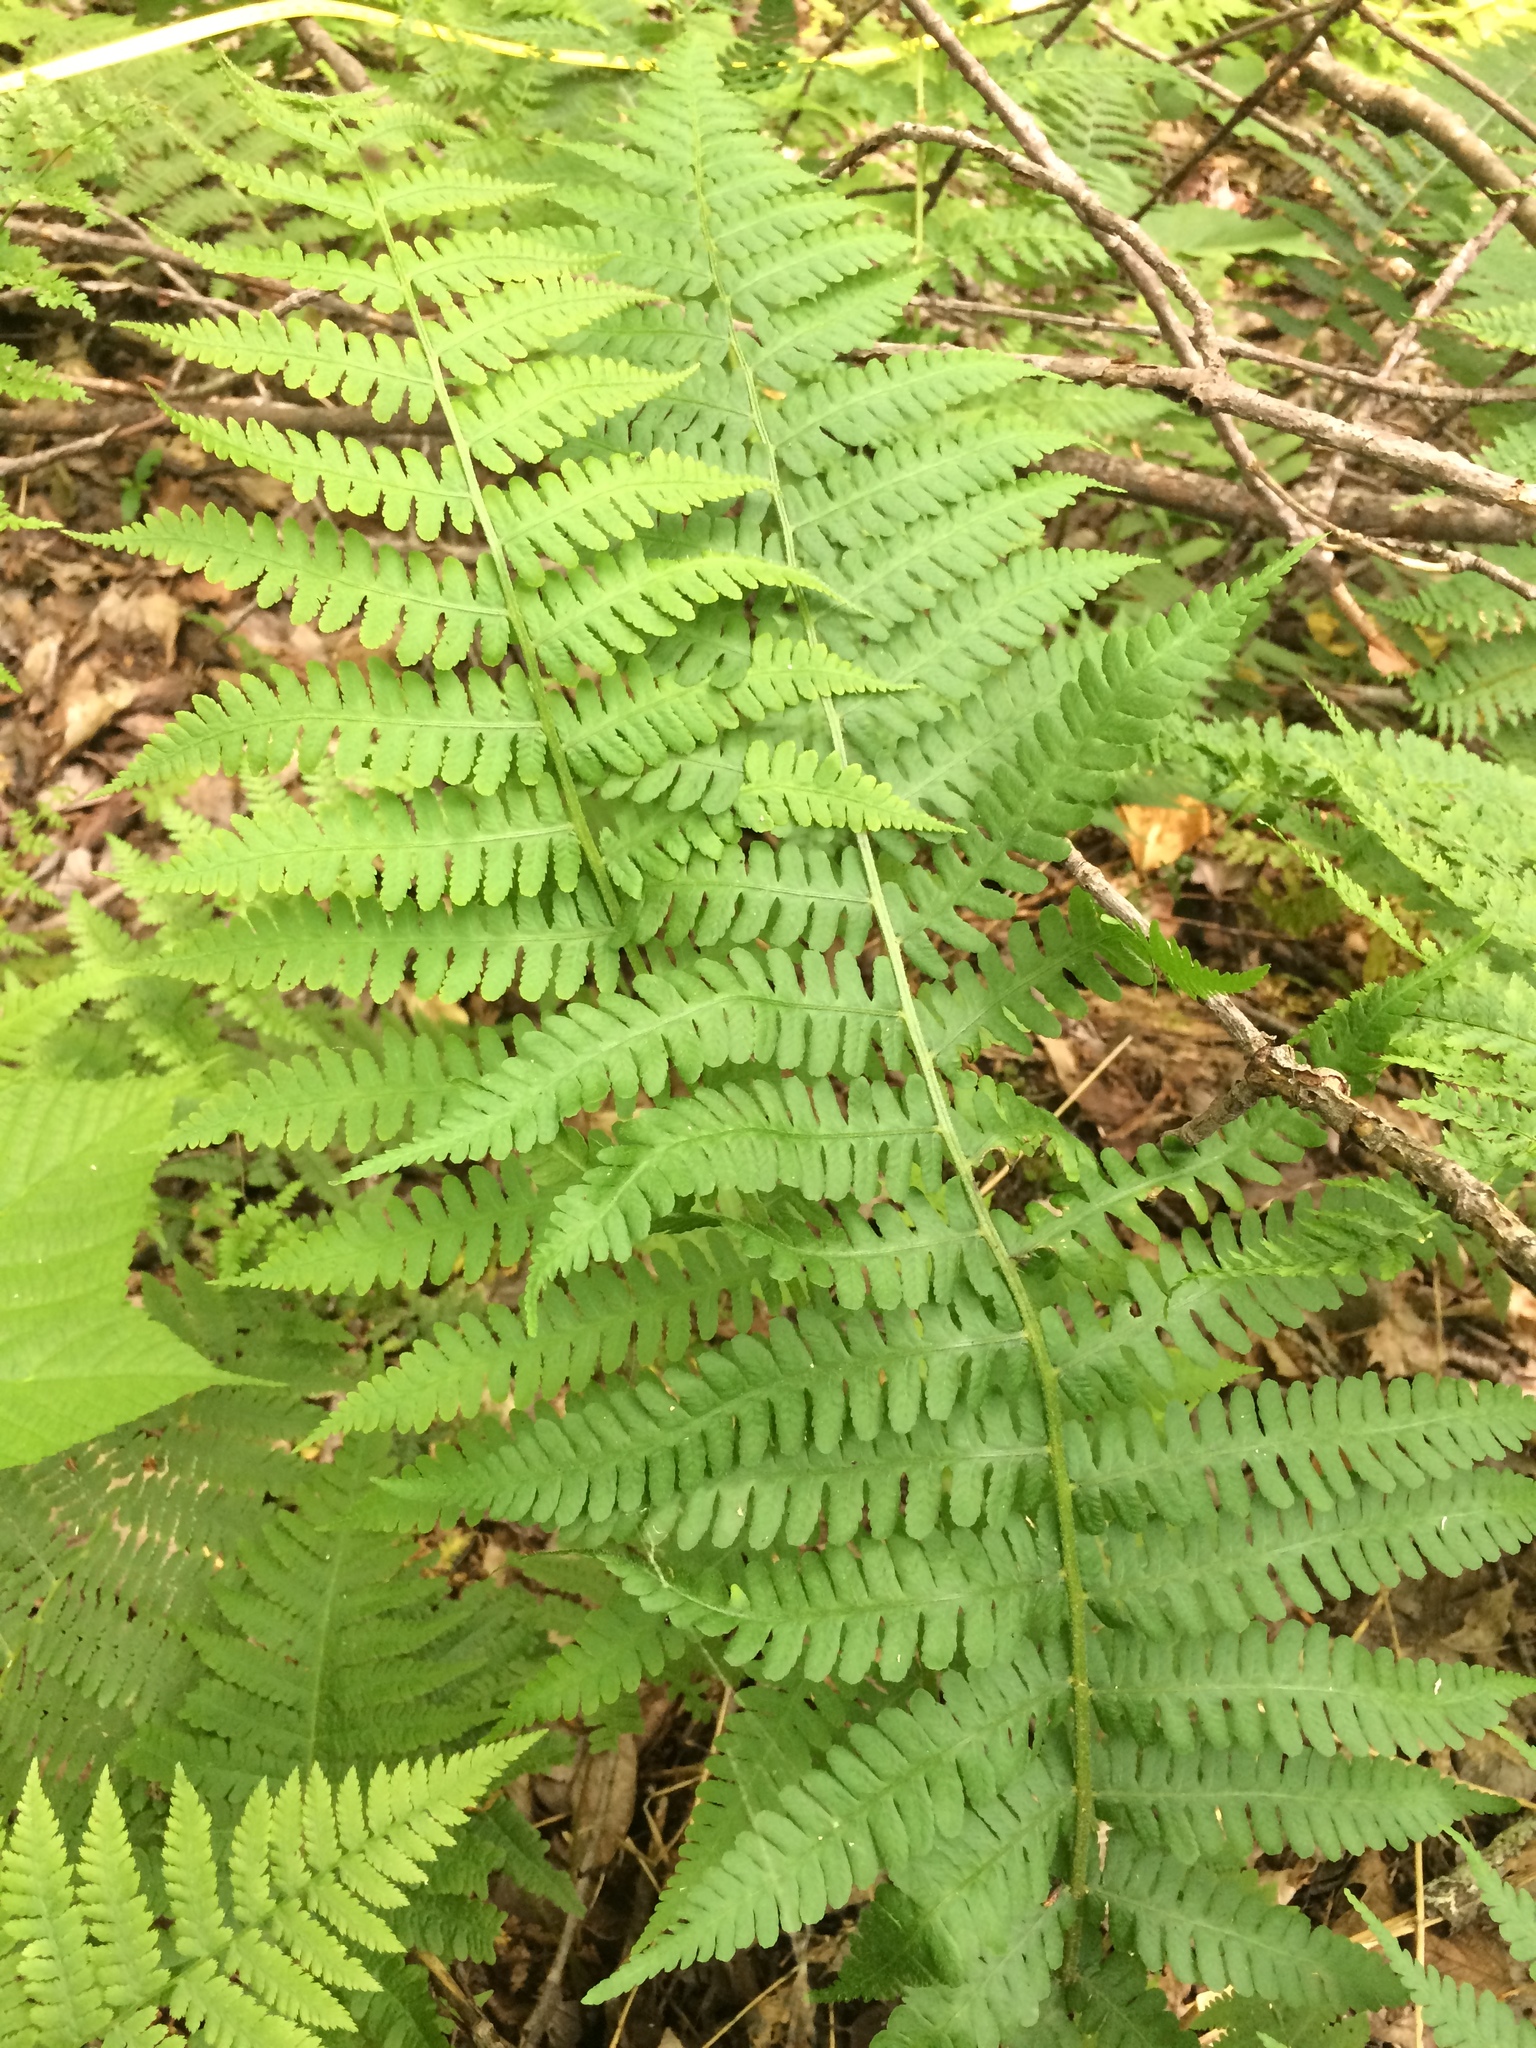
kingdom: Plantae
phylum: Tracheophyta
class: Polypodiopsida
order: Polypodiales
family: Athyriaceae
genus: Deparia
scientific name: Deparia acrostichoides
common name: Silver false spleenwort
